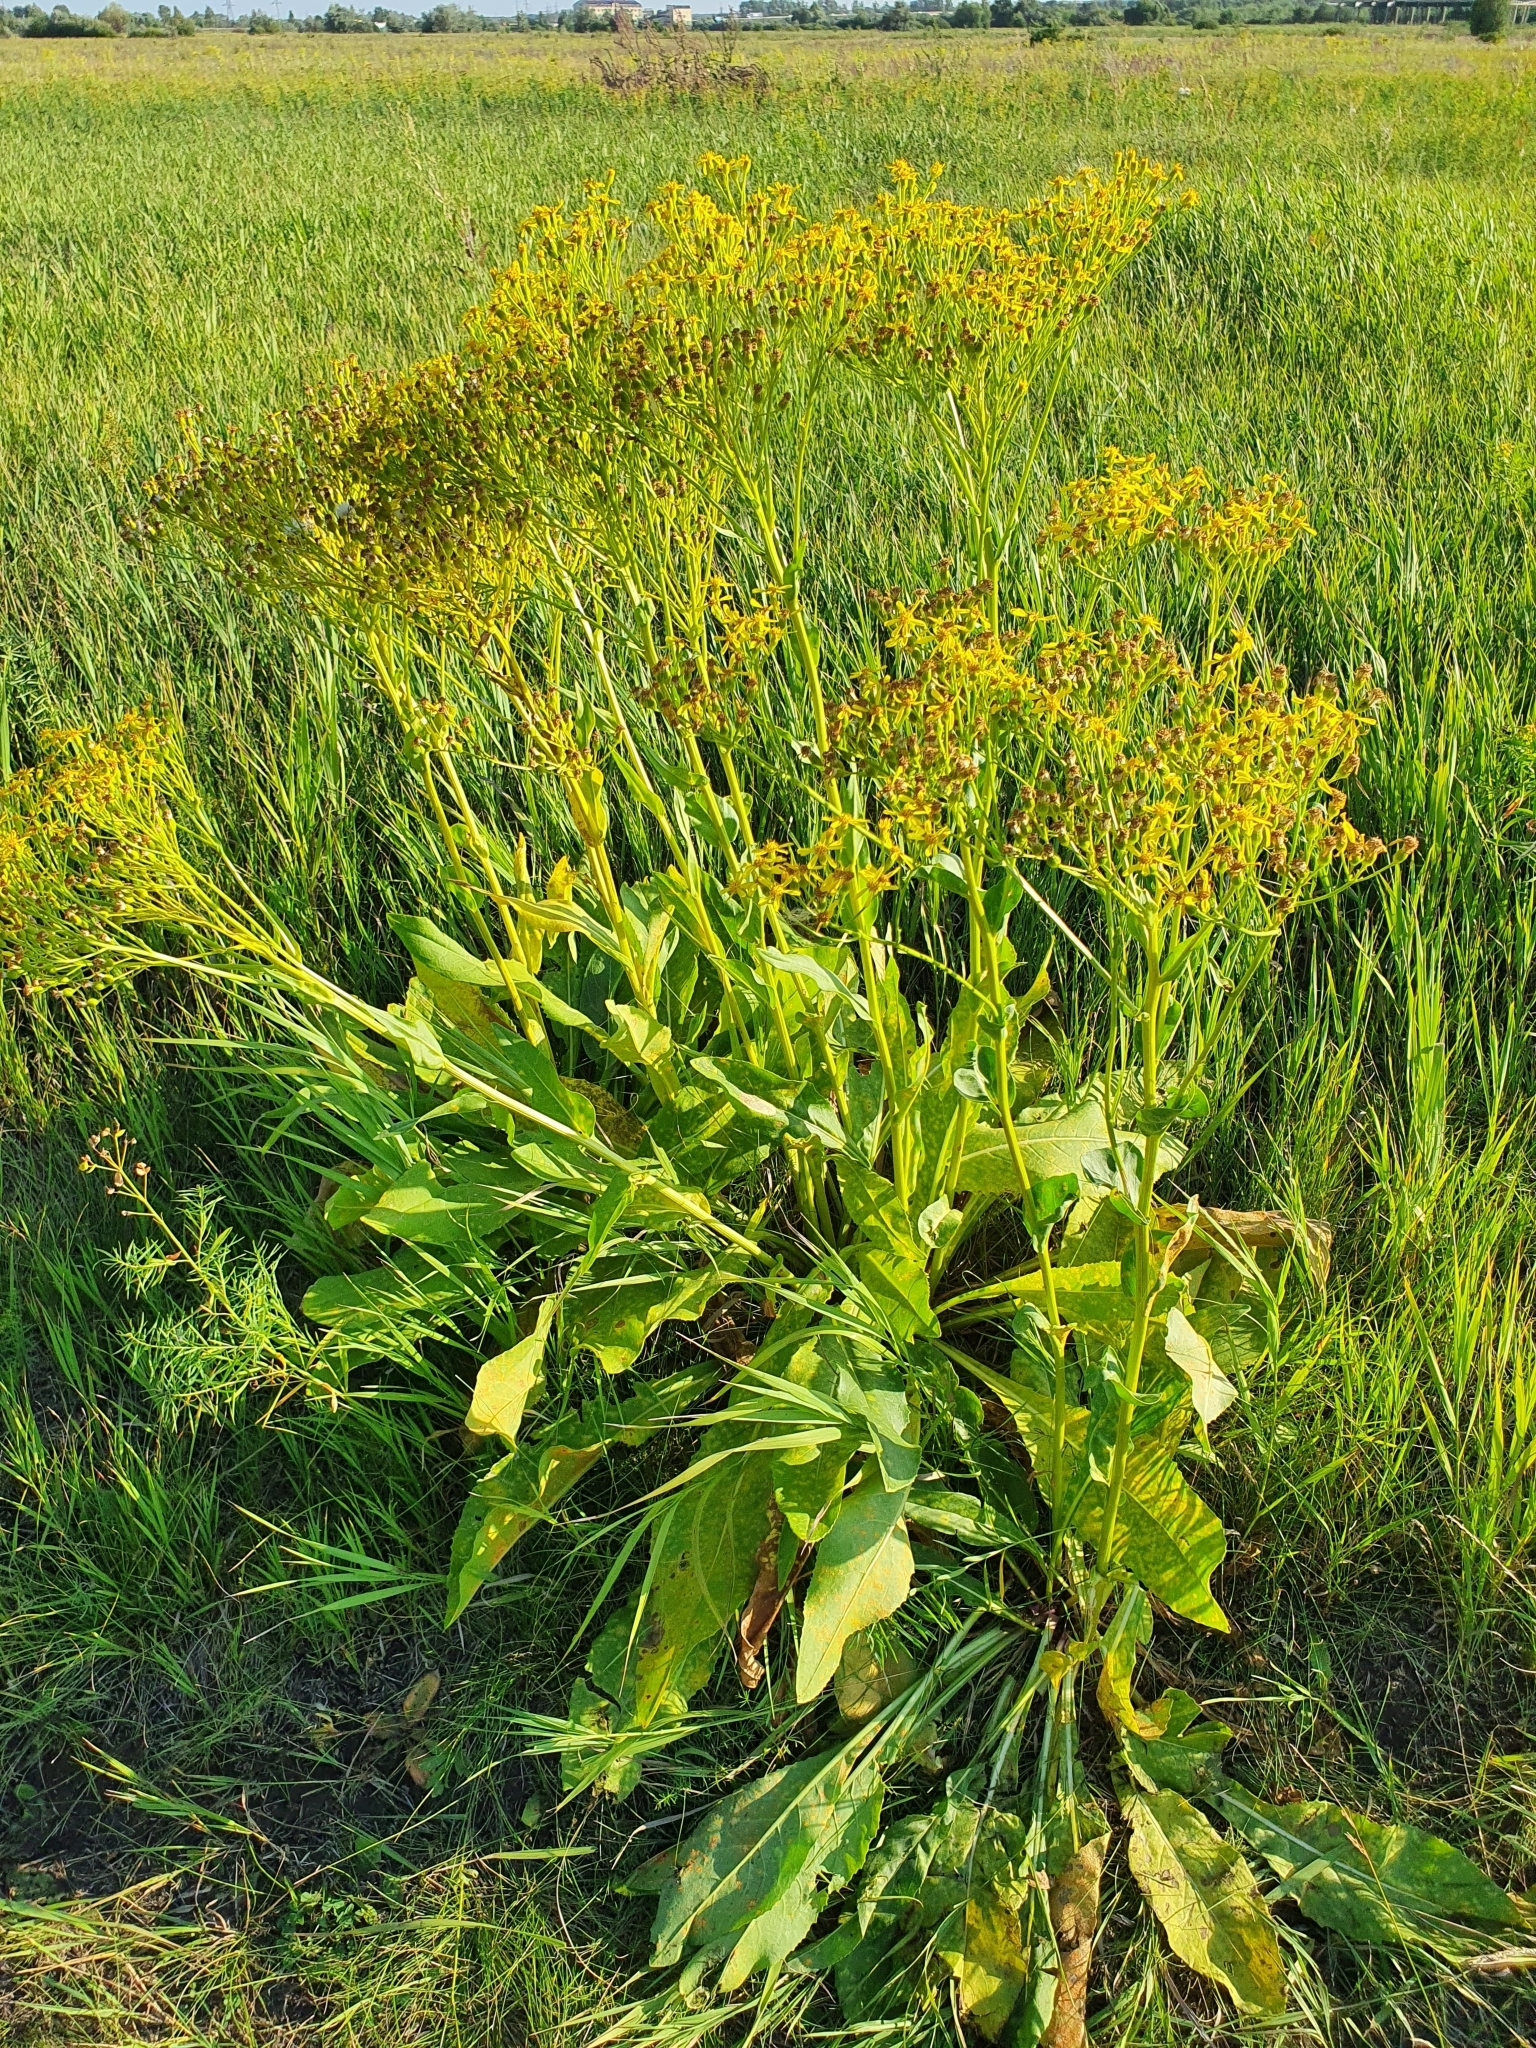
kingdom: Plantae
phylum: Tracheophyta
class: Magnoliopsida
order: Asterales
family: Asteraceae
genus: Senecio
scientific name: Senecio doria
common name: Golden ragwort
